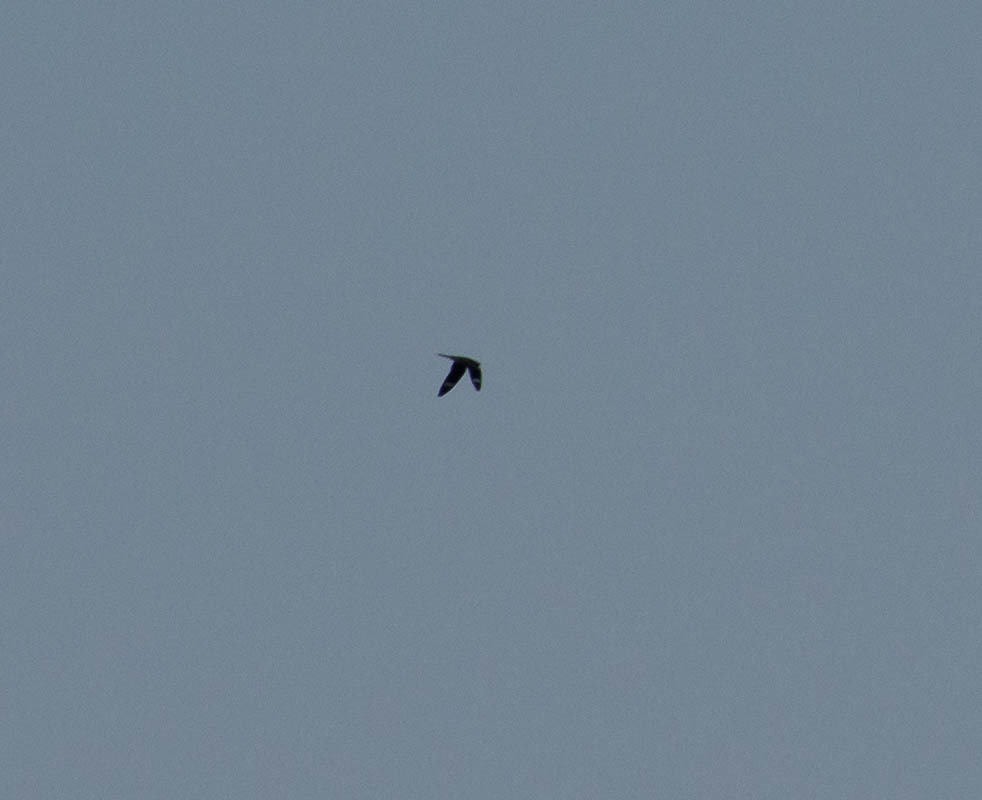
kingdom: Animalia
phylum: Chordata
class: Aves
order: Caprimulgiformes
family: Caprimulgidae
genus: Chordeiles
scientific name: Chordeiles minor
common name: Common nighthawk
